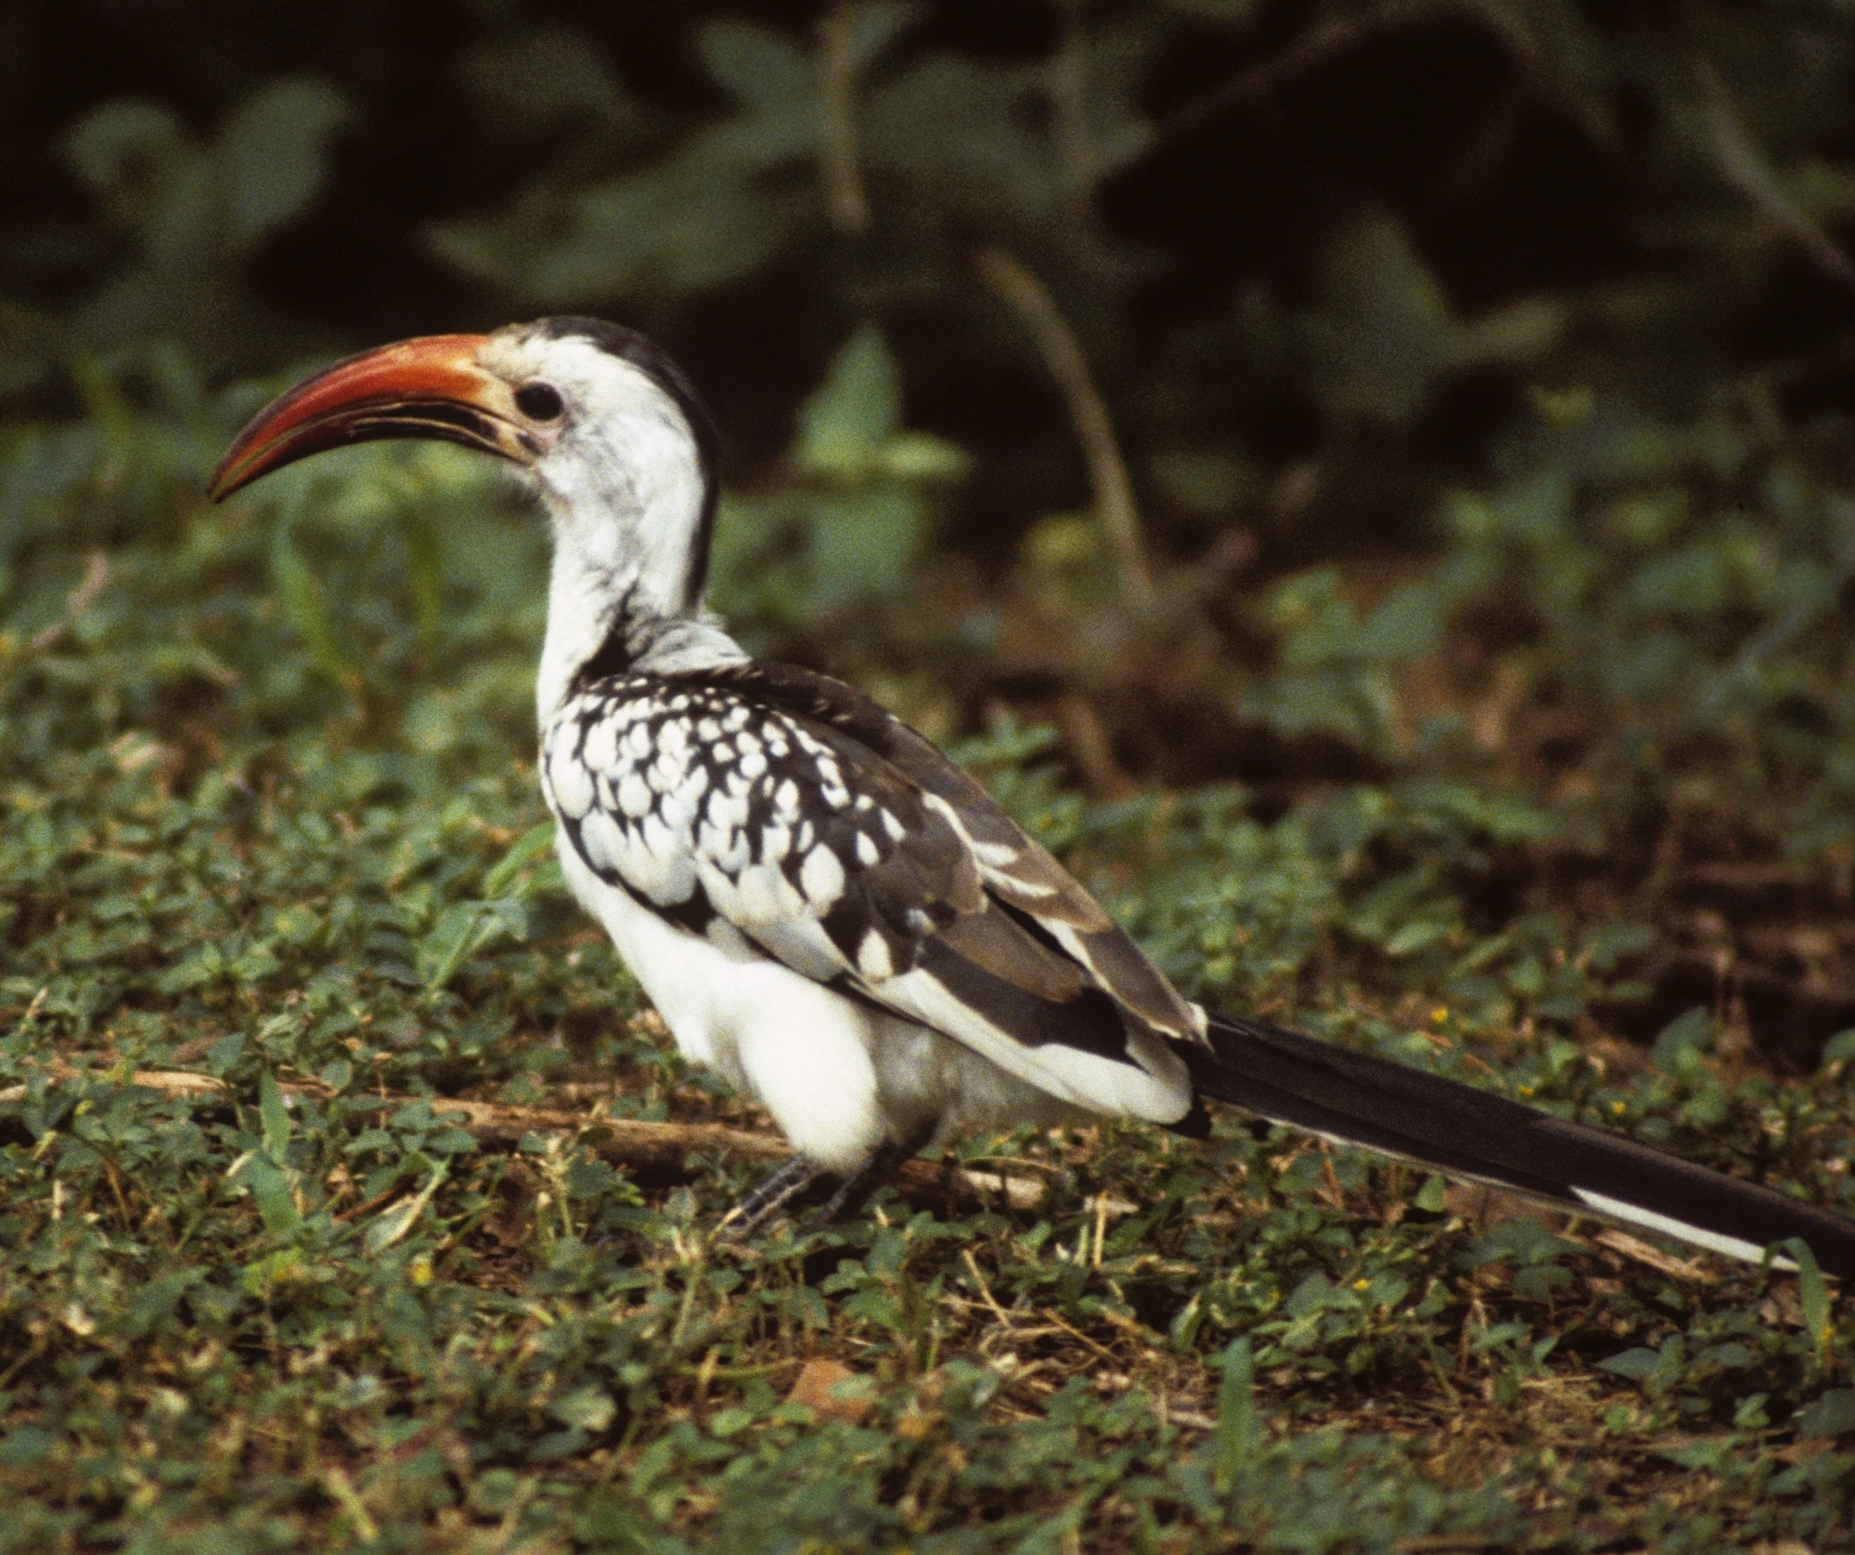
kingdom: Animalia
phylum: Chordata
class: Aves
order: Bucerotiformes
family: Bucerotidae
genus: Tockus
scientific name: Tockus erythrorhynchus
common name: Northern red-billed hornbill
